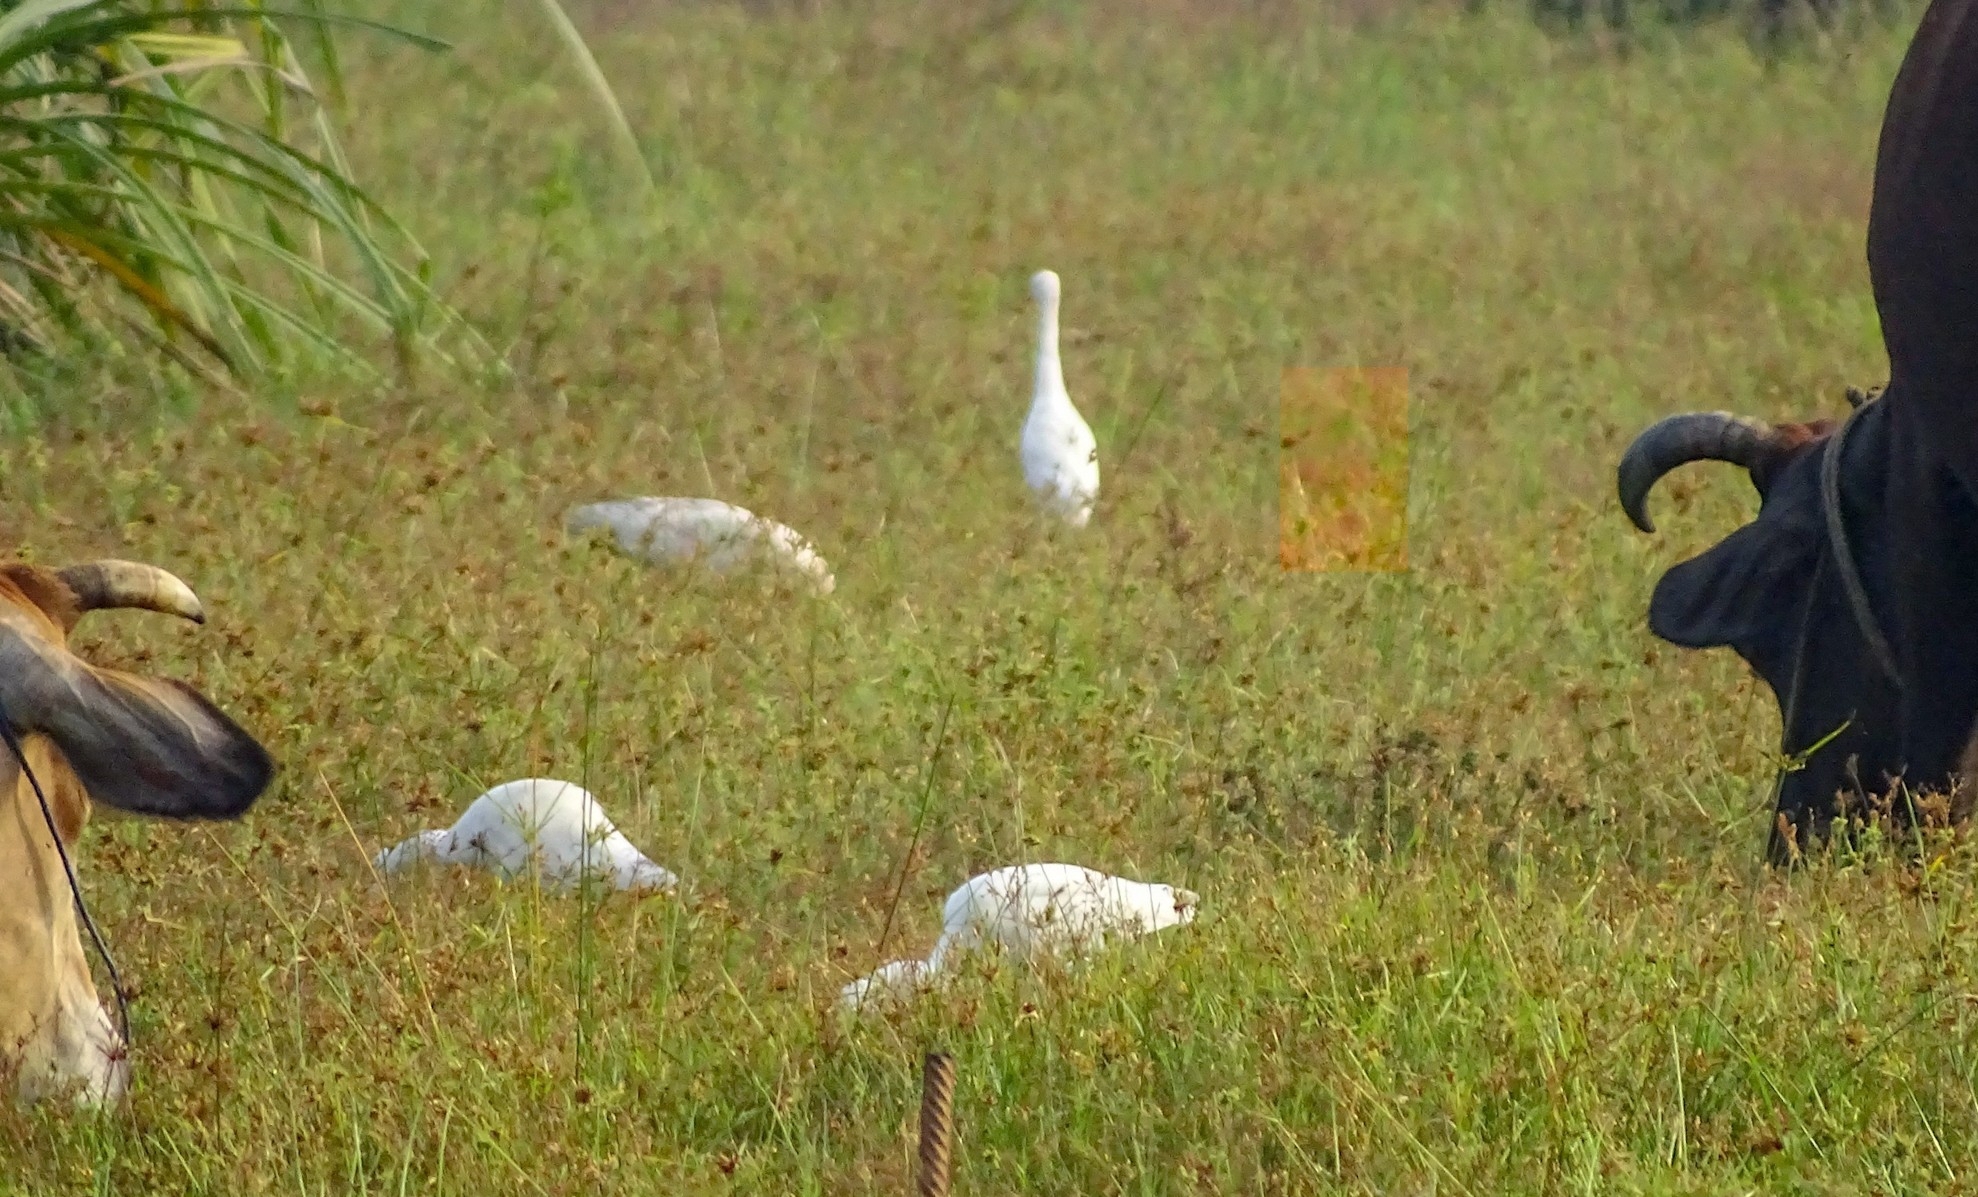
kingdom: Animalia
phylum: Chordata
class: Aves
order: Pelecaniformes
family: Ardeidae
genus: Bubulcus
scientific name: Bubulcus coromandus
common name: Eastern cattle egret
